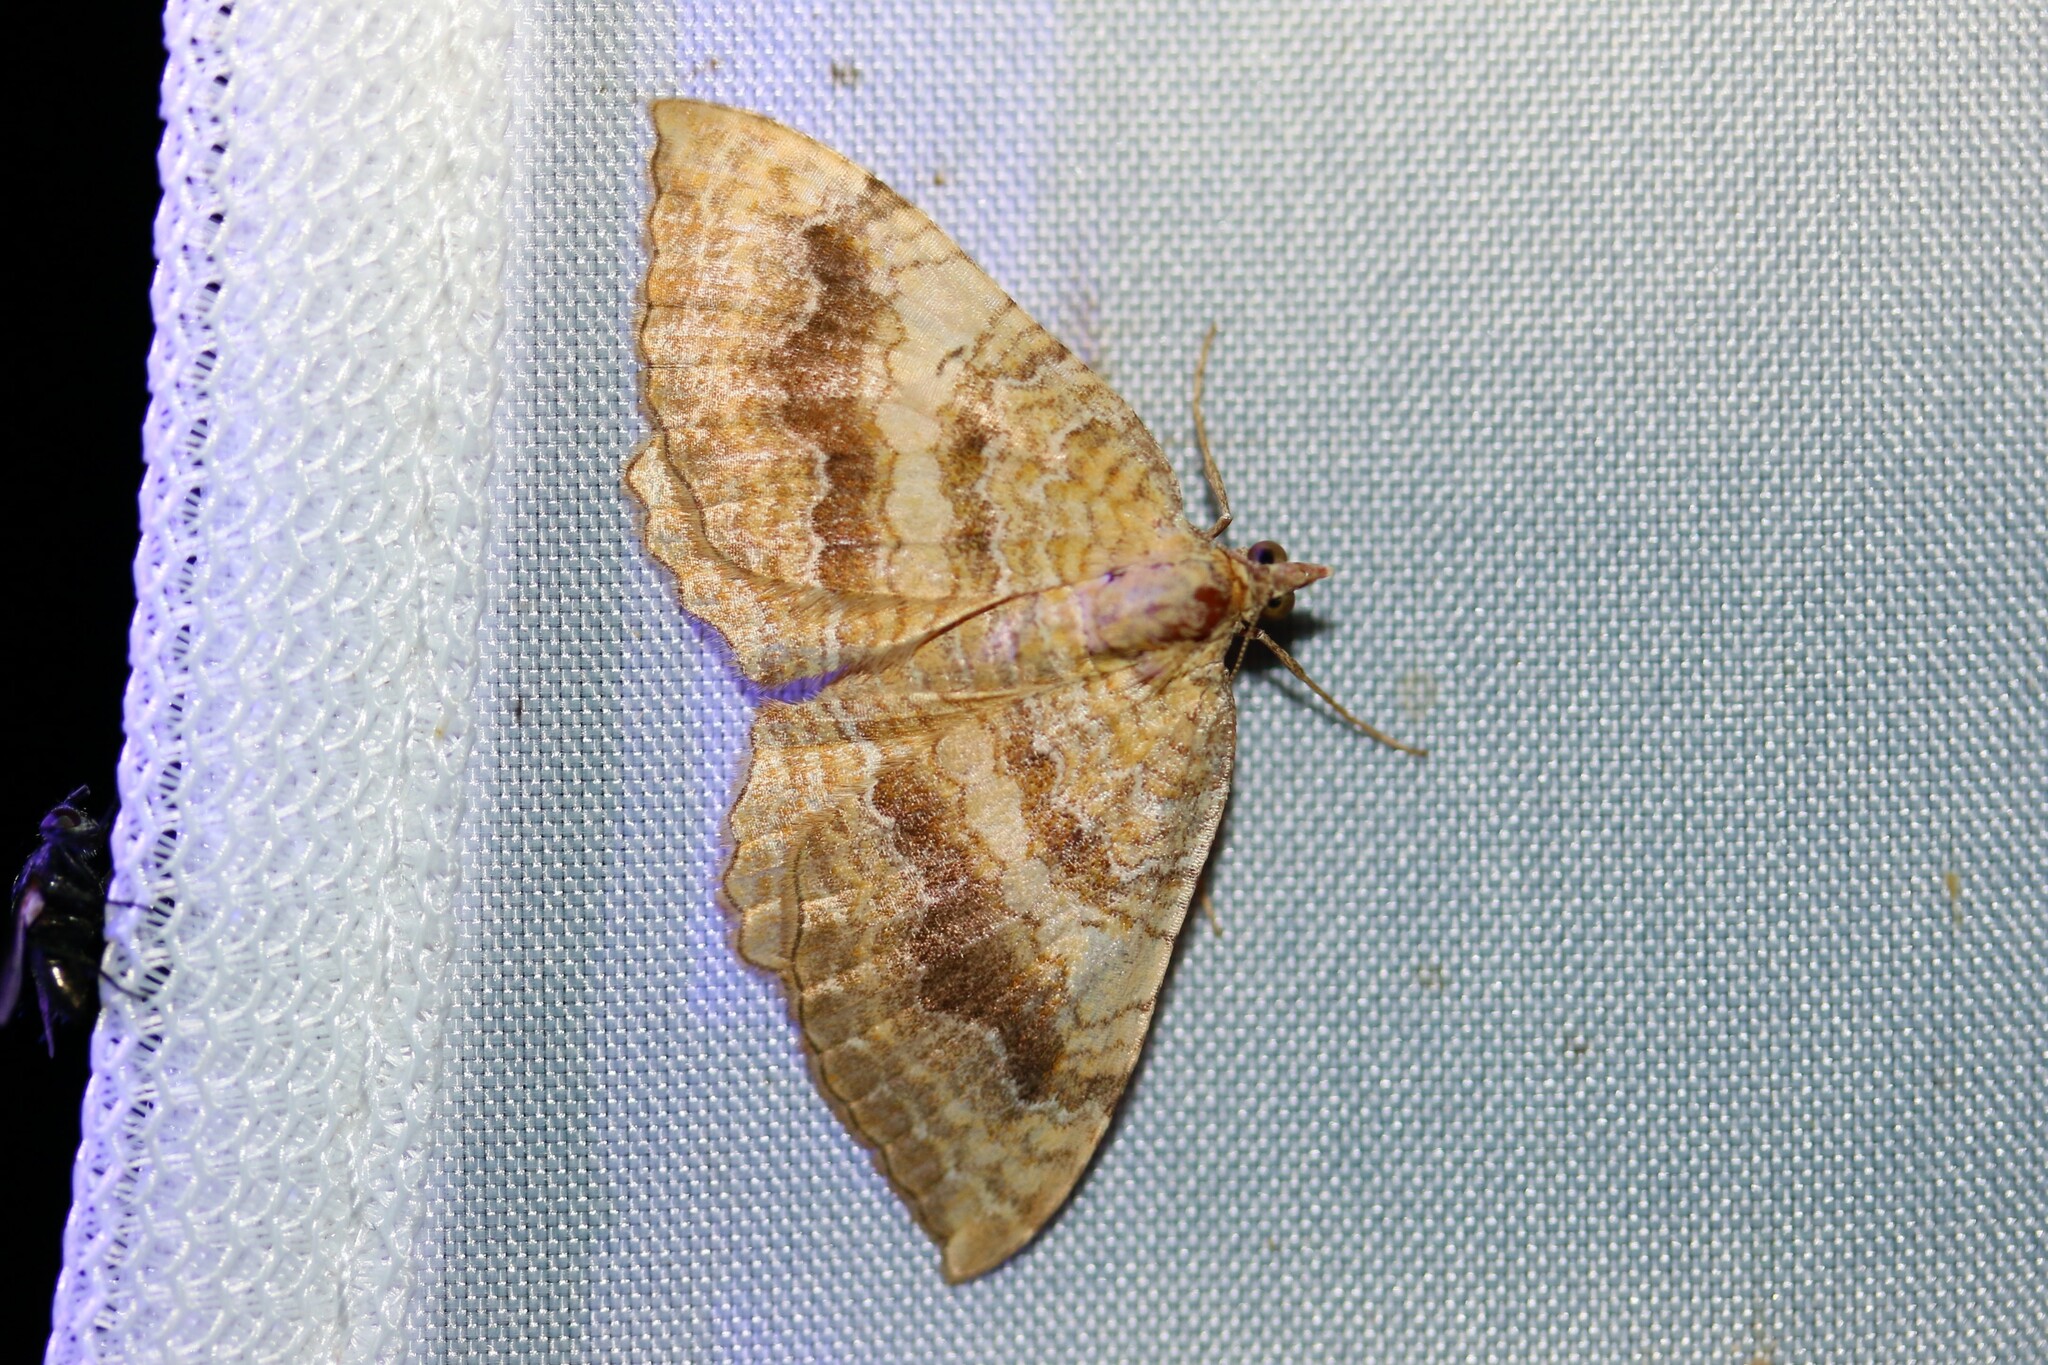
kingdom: Animalia
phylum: Arthropoda
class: Insecta
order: Lepidoptera
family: Geometridae
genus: Camptogramma
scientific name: Camptogramma bilineata
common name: Yellow shell
